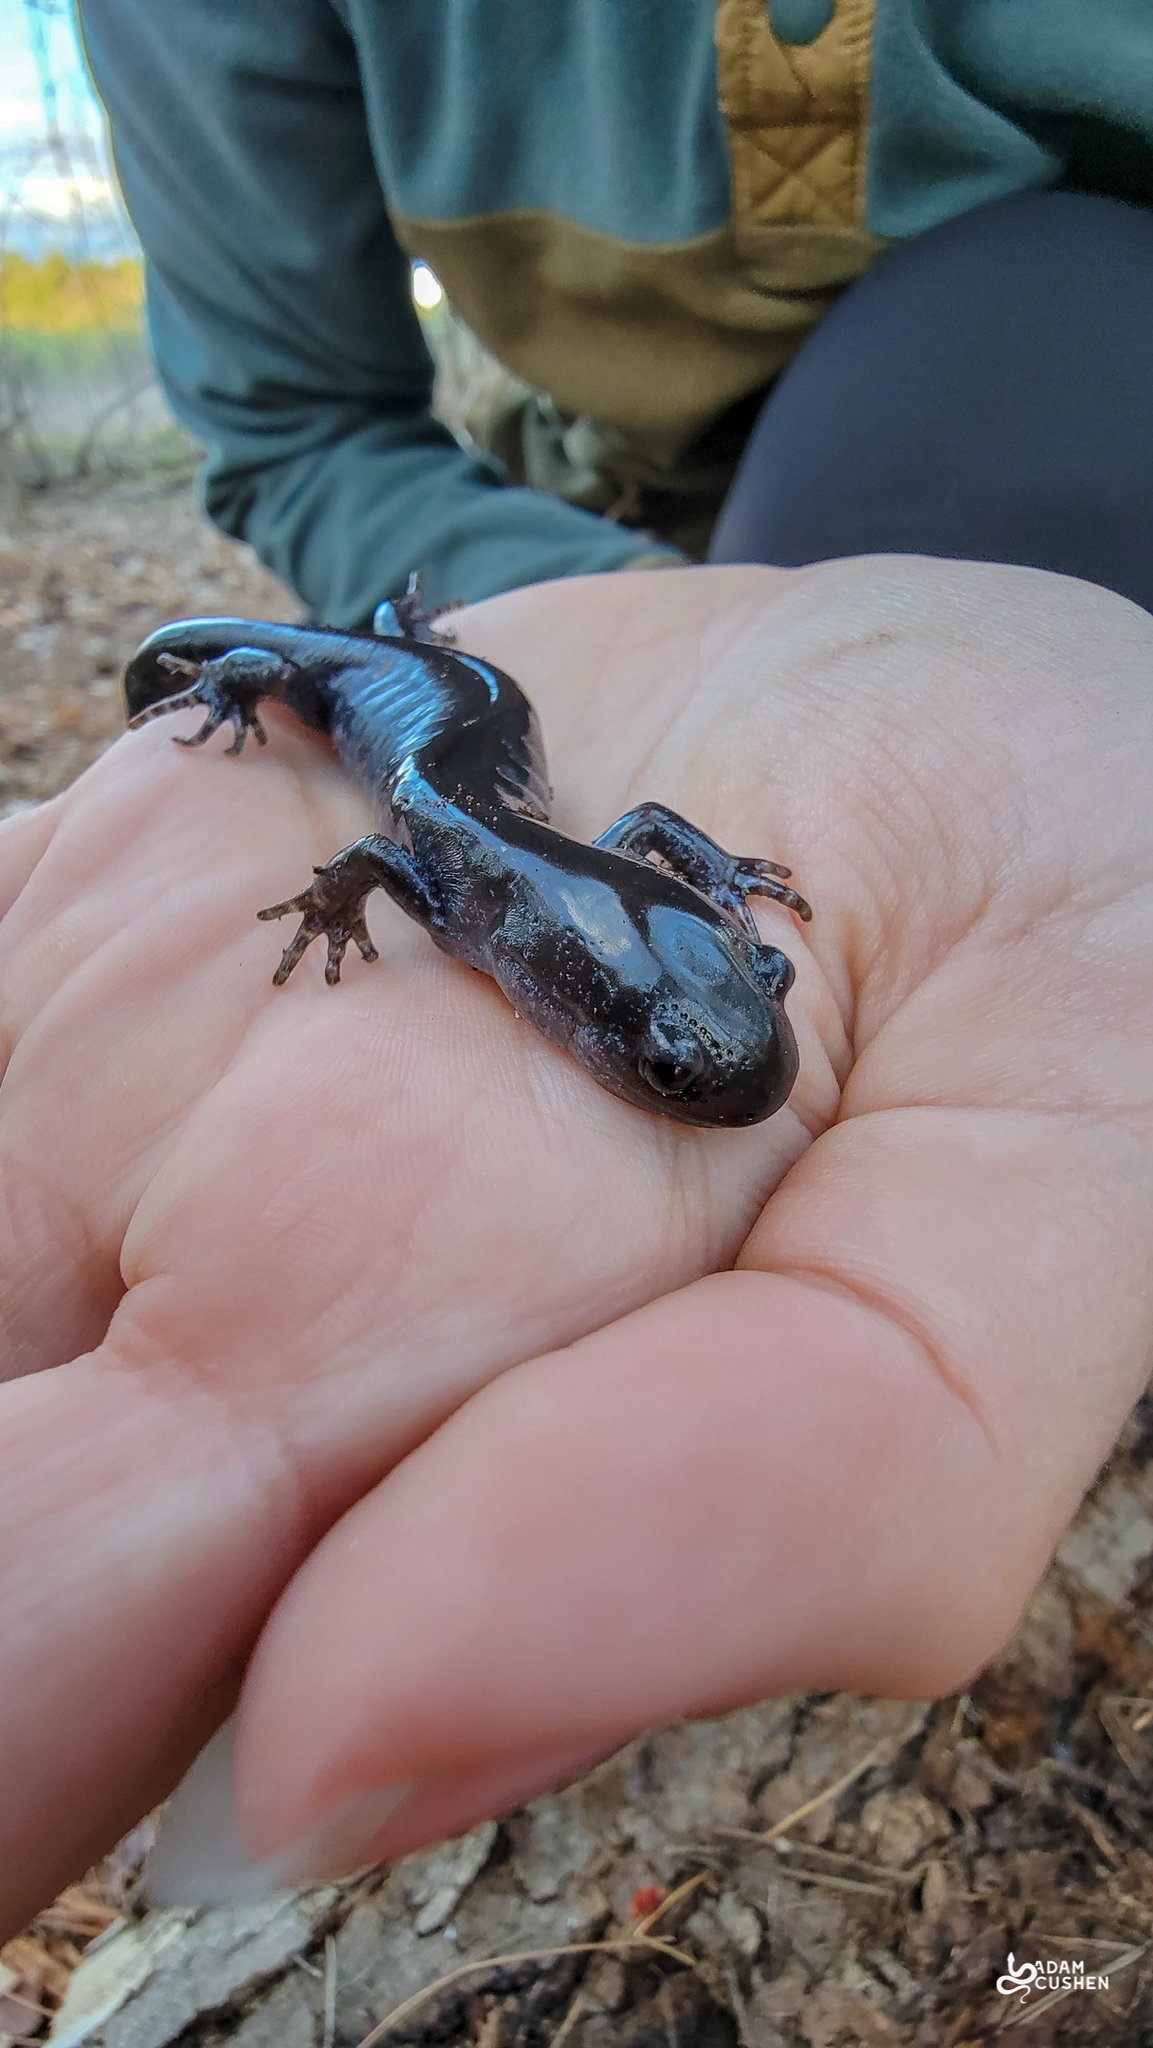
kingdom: Animalia
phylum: Chordata
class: Amphibia
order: Caudata
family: Ambystomatidae
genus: Ambystoma
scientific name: Ambystoma laterale
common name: Blue-spotted salamander
